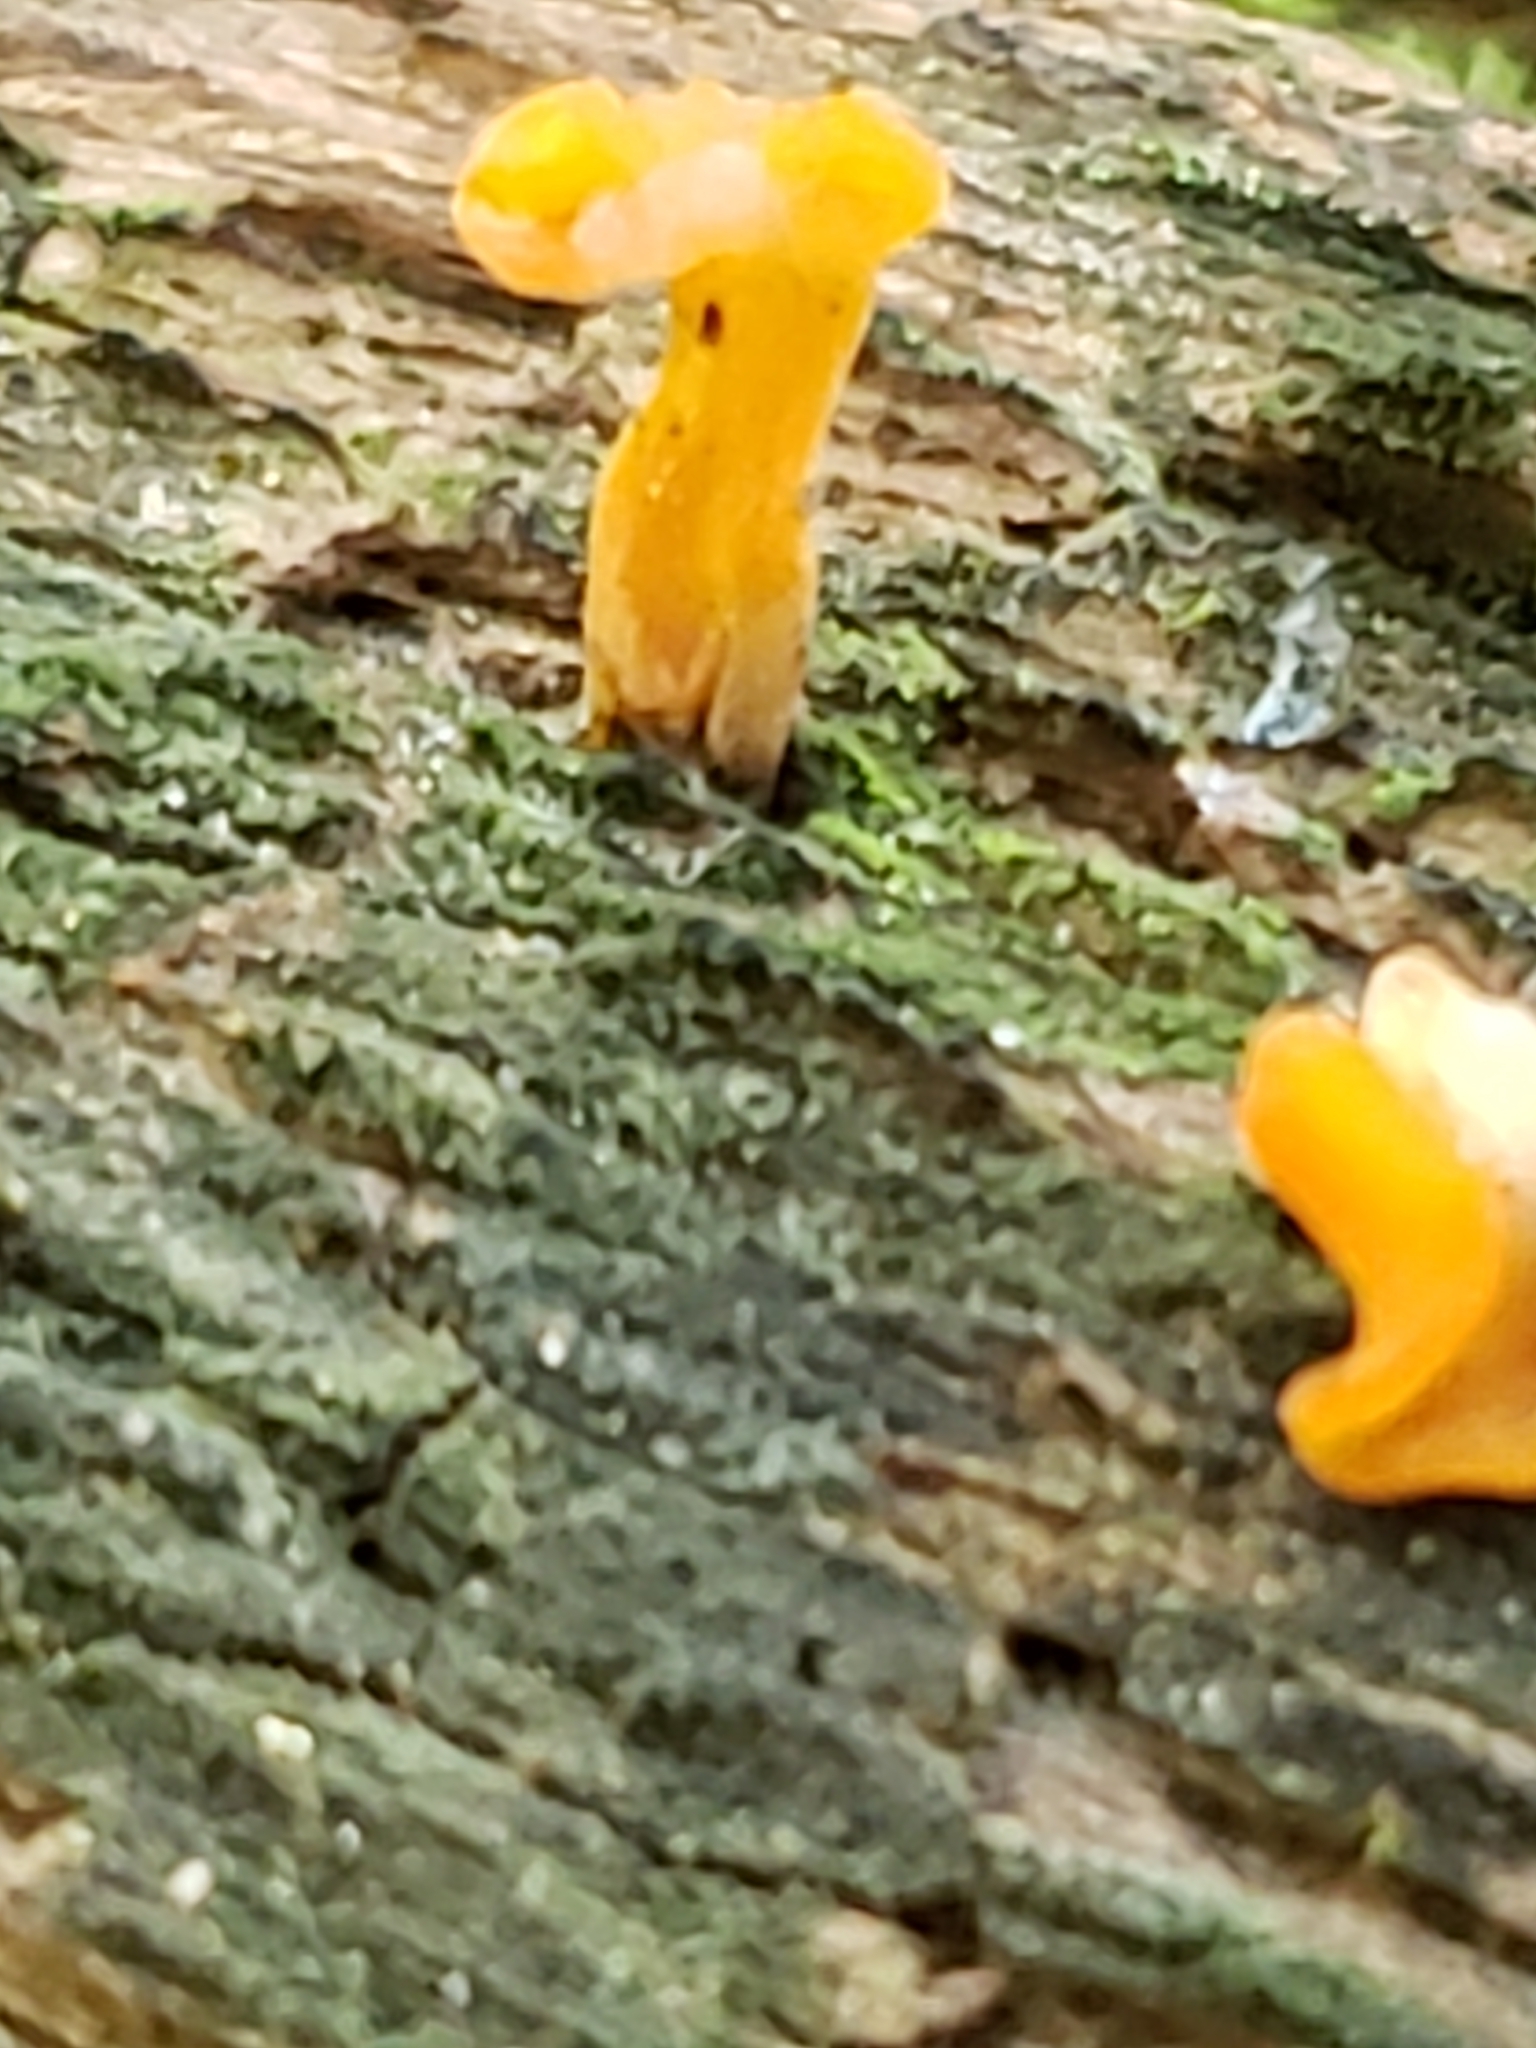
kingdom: Fungi
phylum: Basidiomycota
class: Dacrymycetes
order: Dacrymycetales
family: Dacrymycetaceae
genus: Dacrymyces
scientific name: Dacrymyces spathularius
